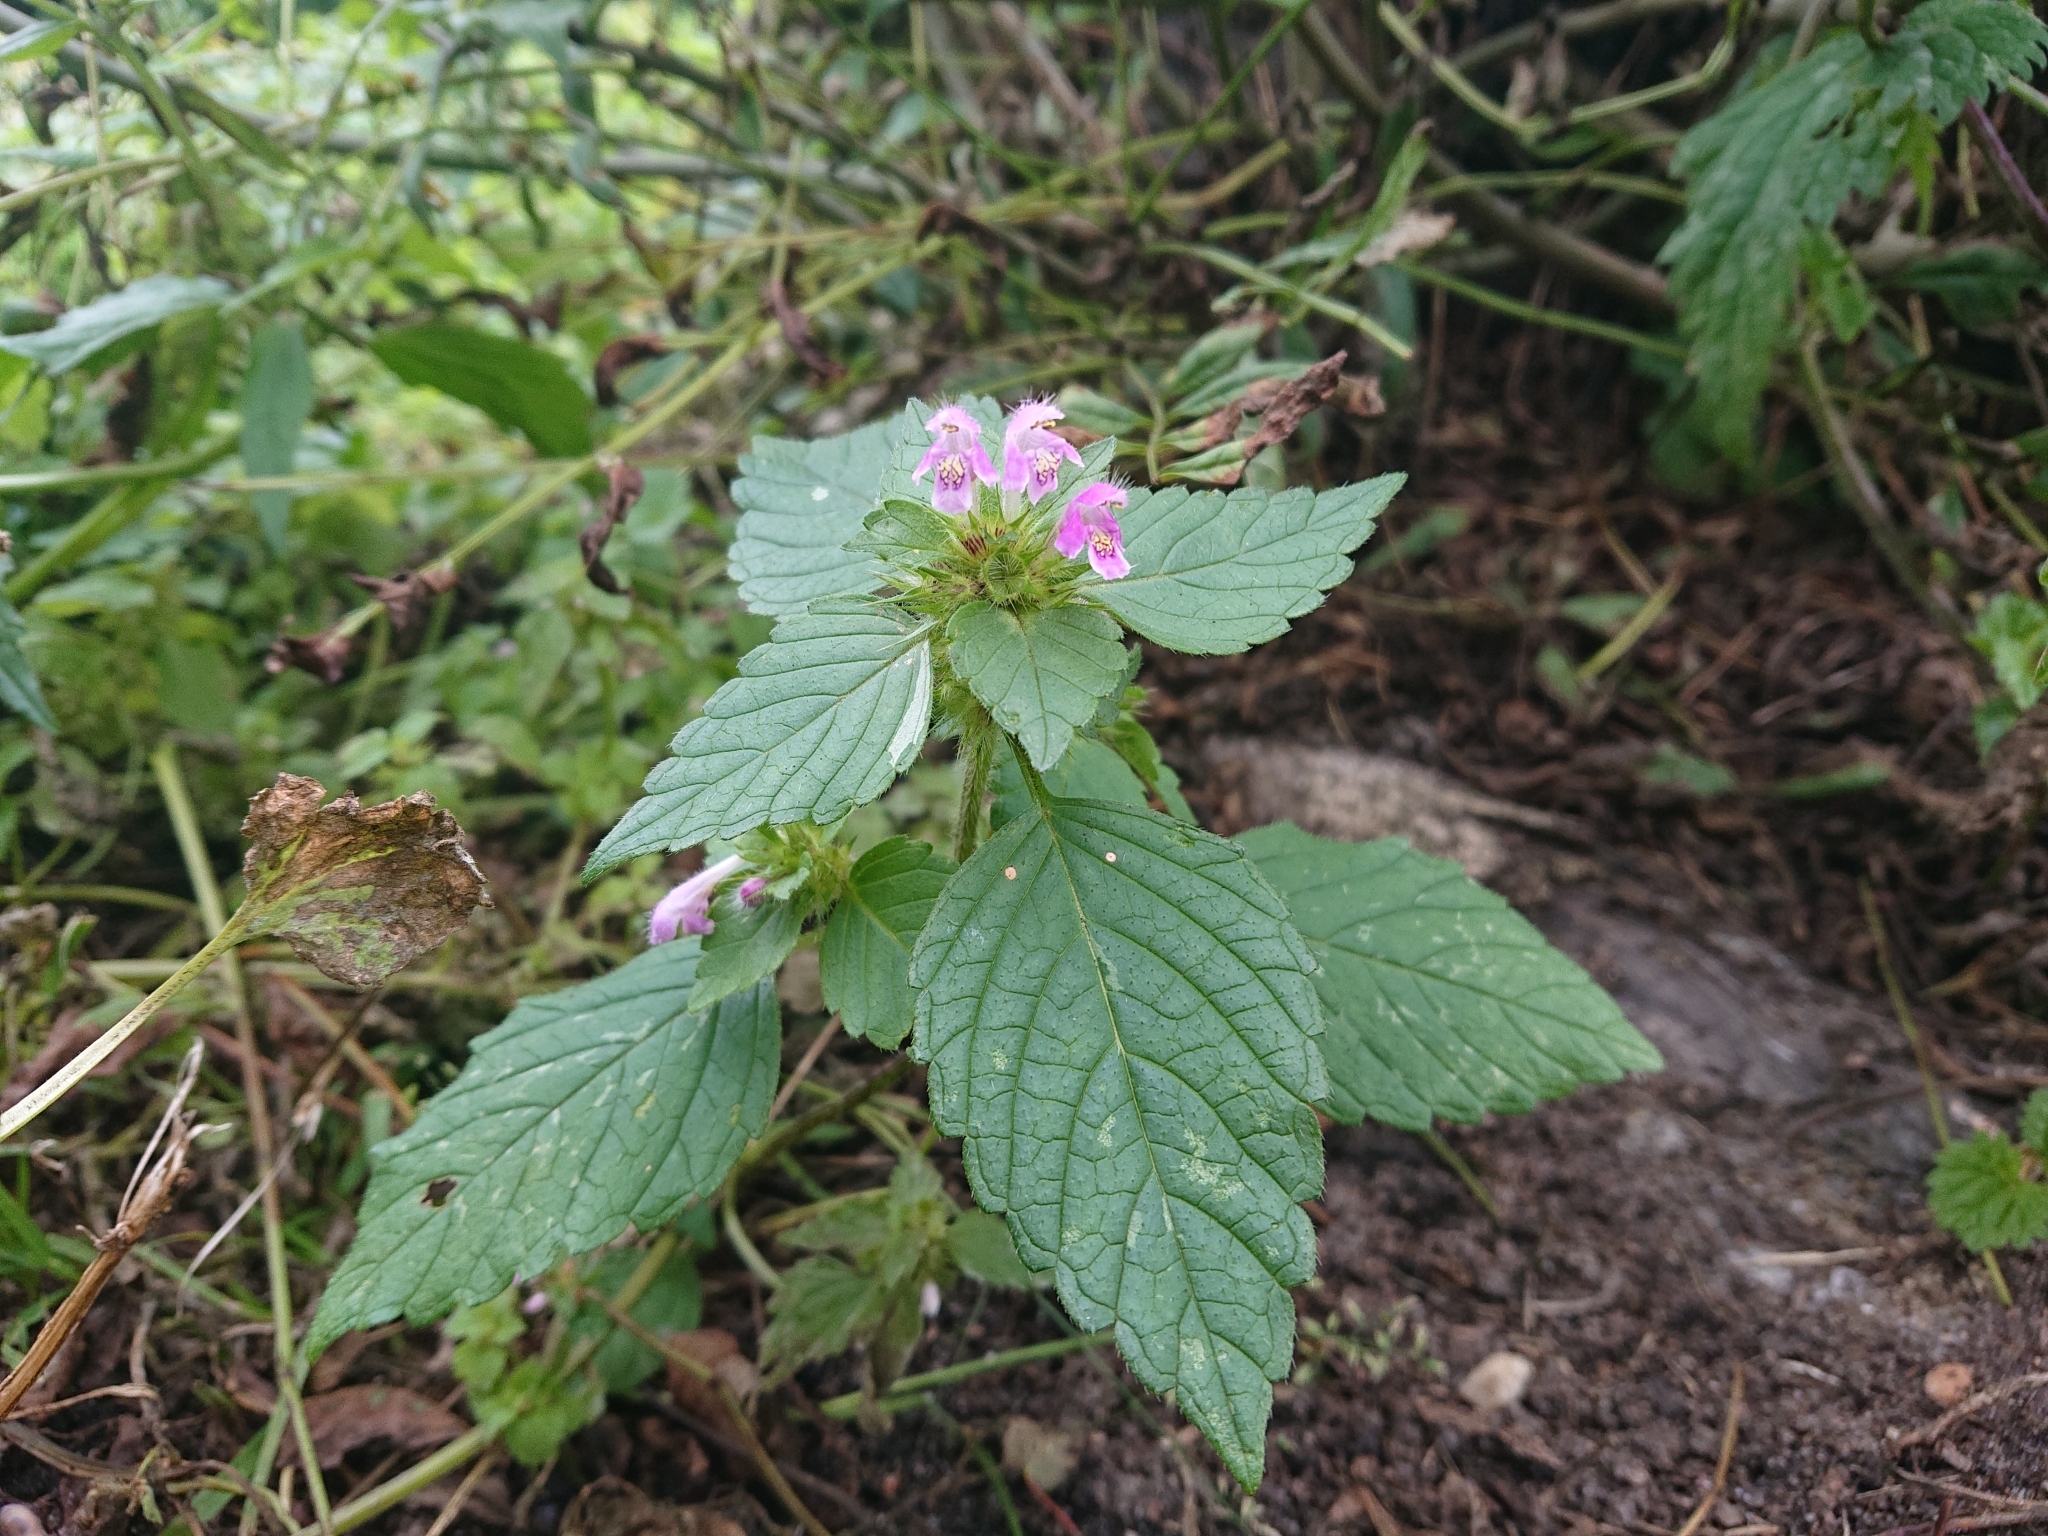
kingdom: Plantae
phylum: Tracheophyta
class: Magnoliopsida
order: Lamiales
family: Lamiaceae
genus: Galeopsis
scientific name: Galeopsis tetrahit
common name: Common hemp-nettle
